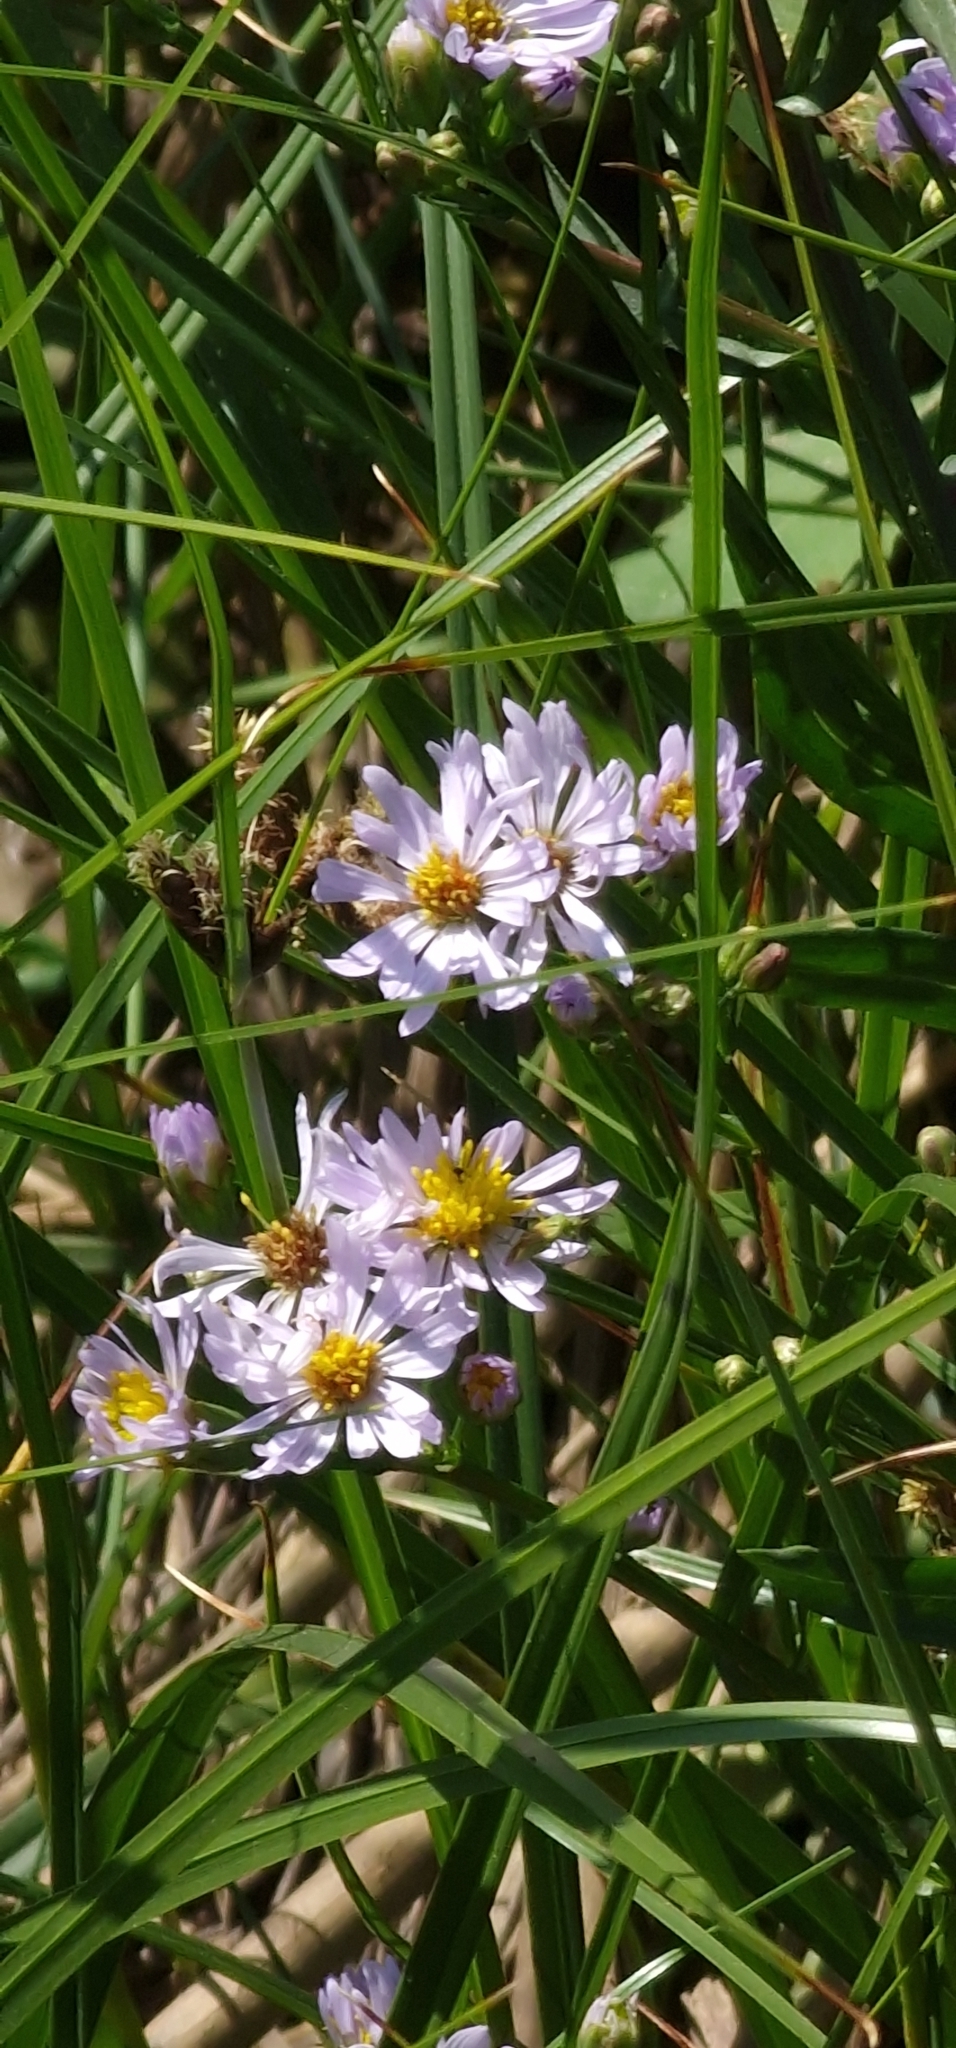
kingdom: Plantae
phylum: Tracheophyta
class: Magnoliopsida
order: Asterales
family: Asteraceae
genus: Tripolium
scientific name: Tripolium pannonicum
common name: Sea aster
